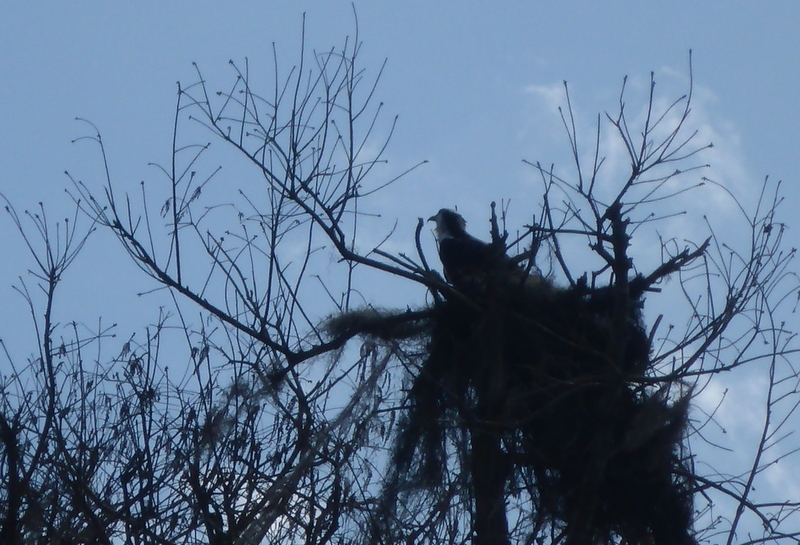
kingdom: Animalia
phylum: Chordata
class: Aves
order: Accipitriformes
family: Pandionidae
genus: Pandion
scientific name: Pandion haliaetus
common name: Osprey
